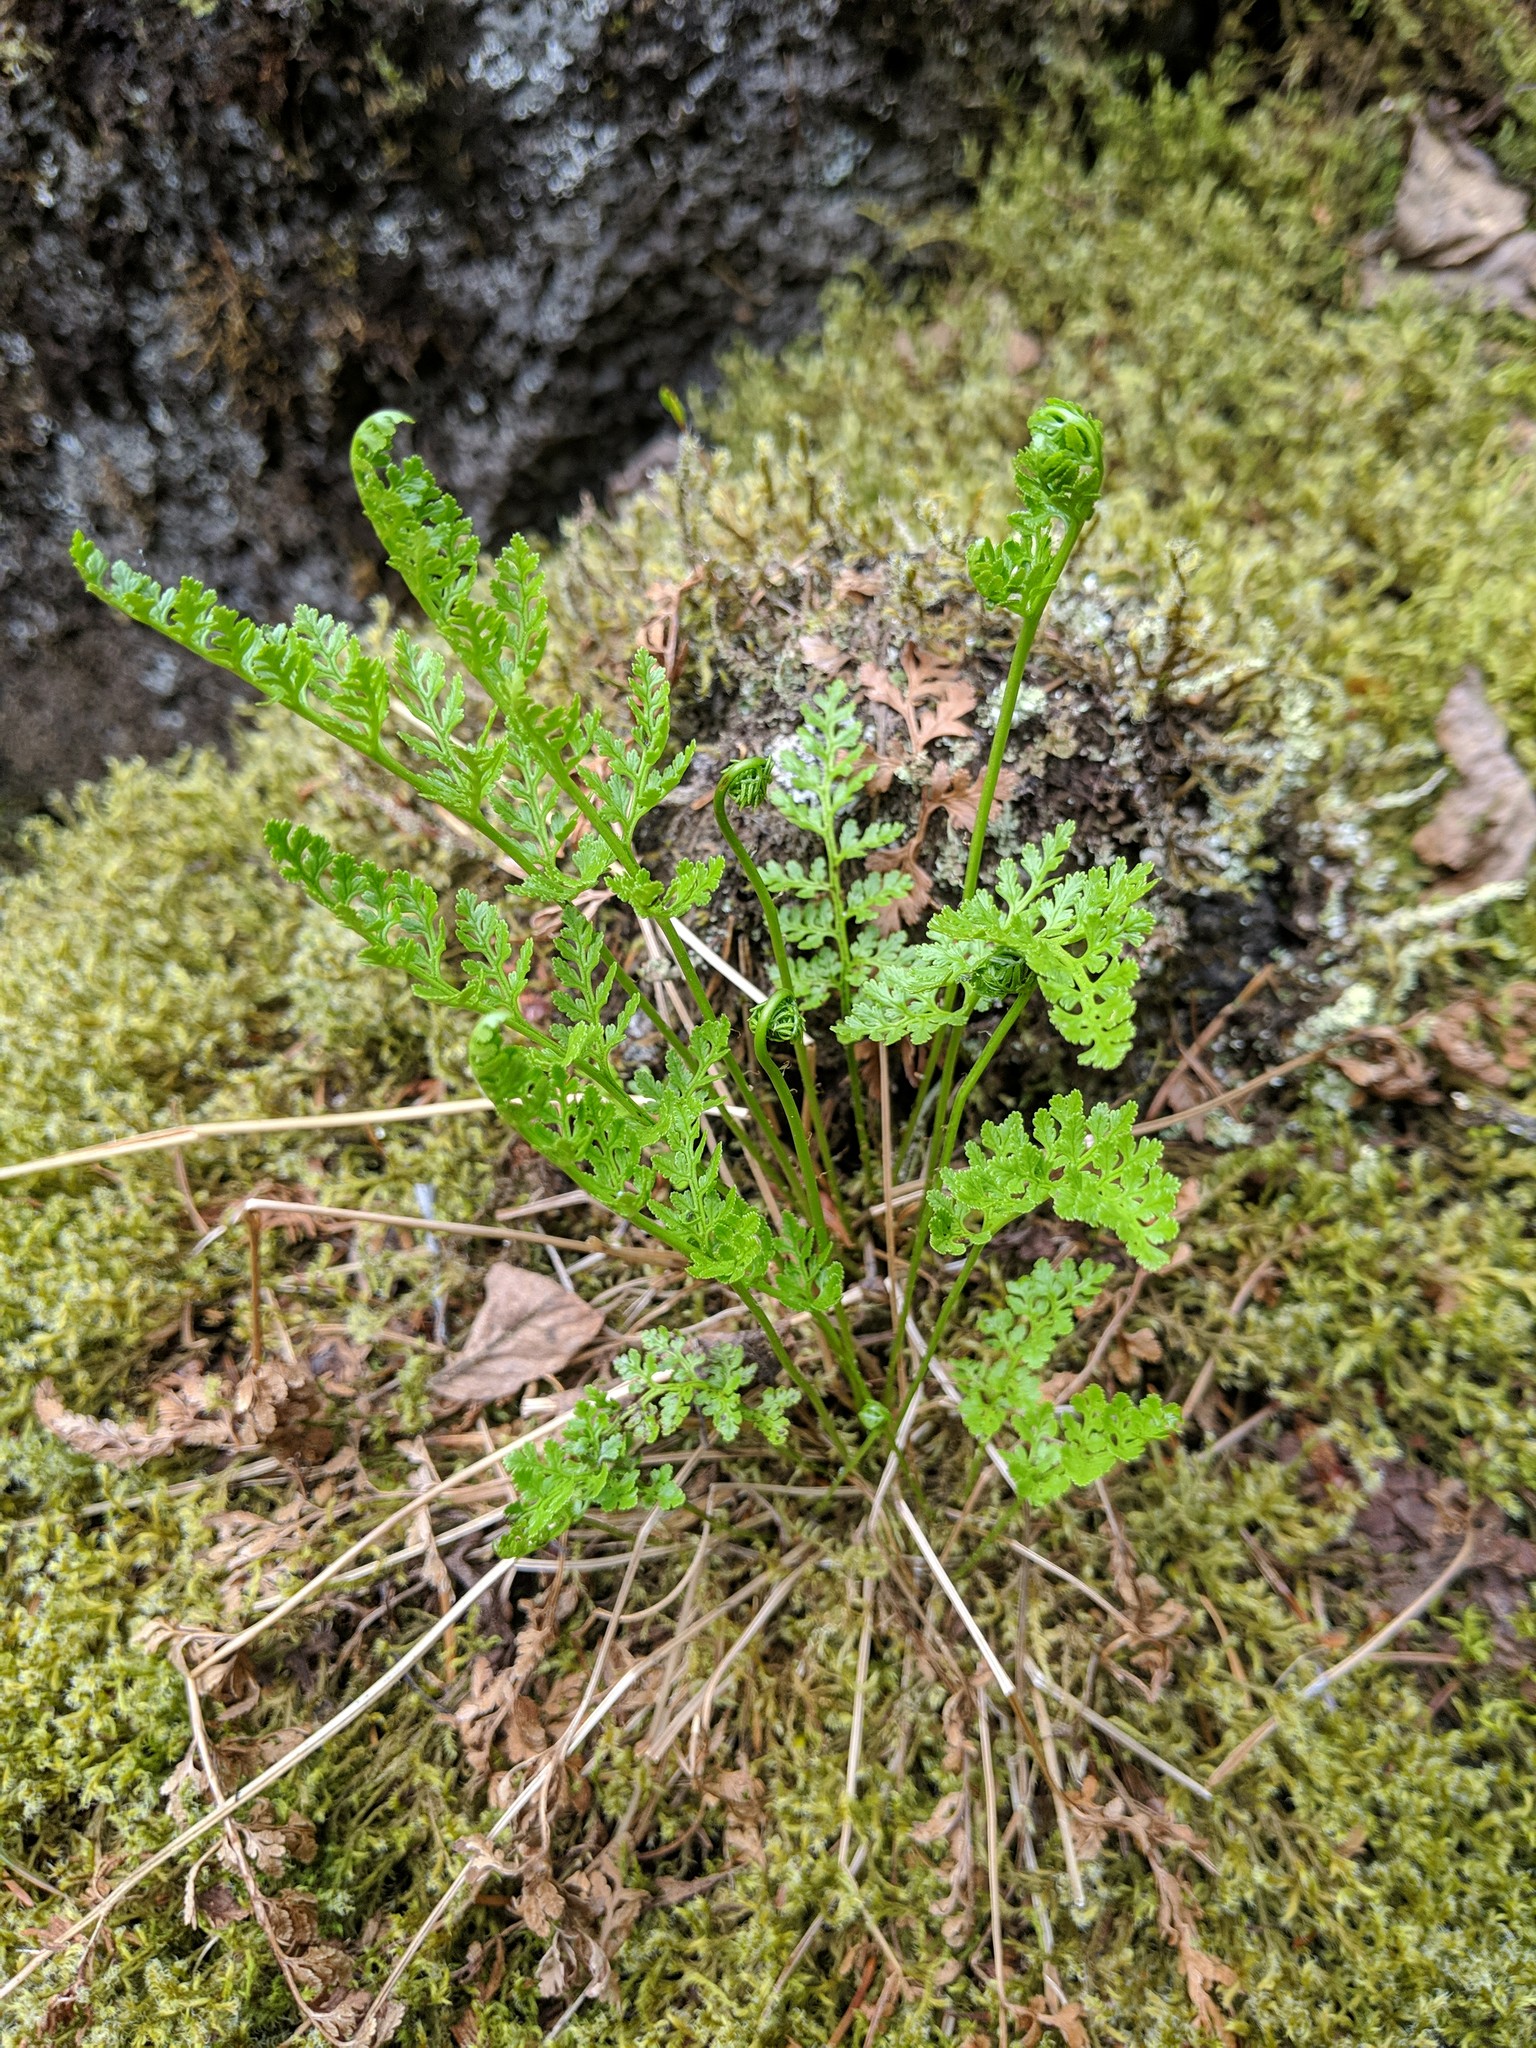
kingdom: Plantae
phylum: Tracheophyta
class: Polypodiopsida
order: Polypodiales
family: Pteridaceae
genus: Cryptogramma
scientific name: Cryptogramma acrostichoides
